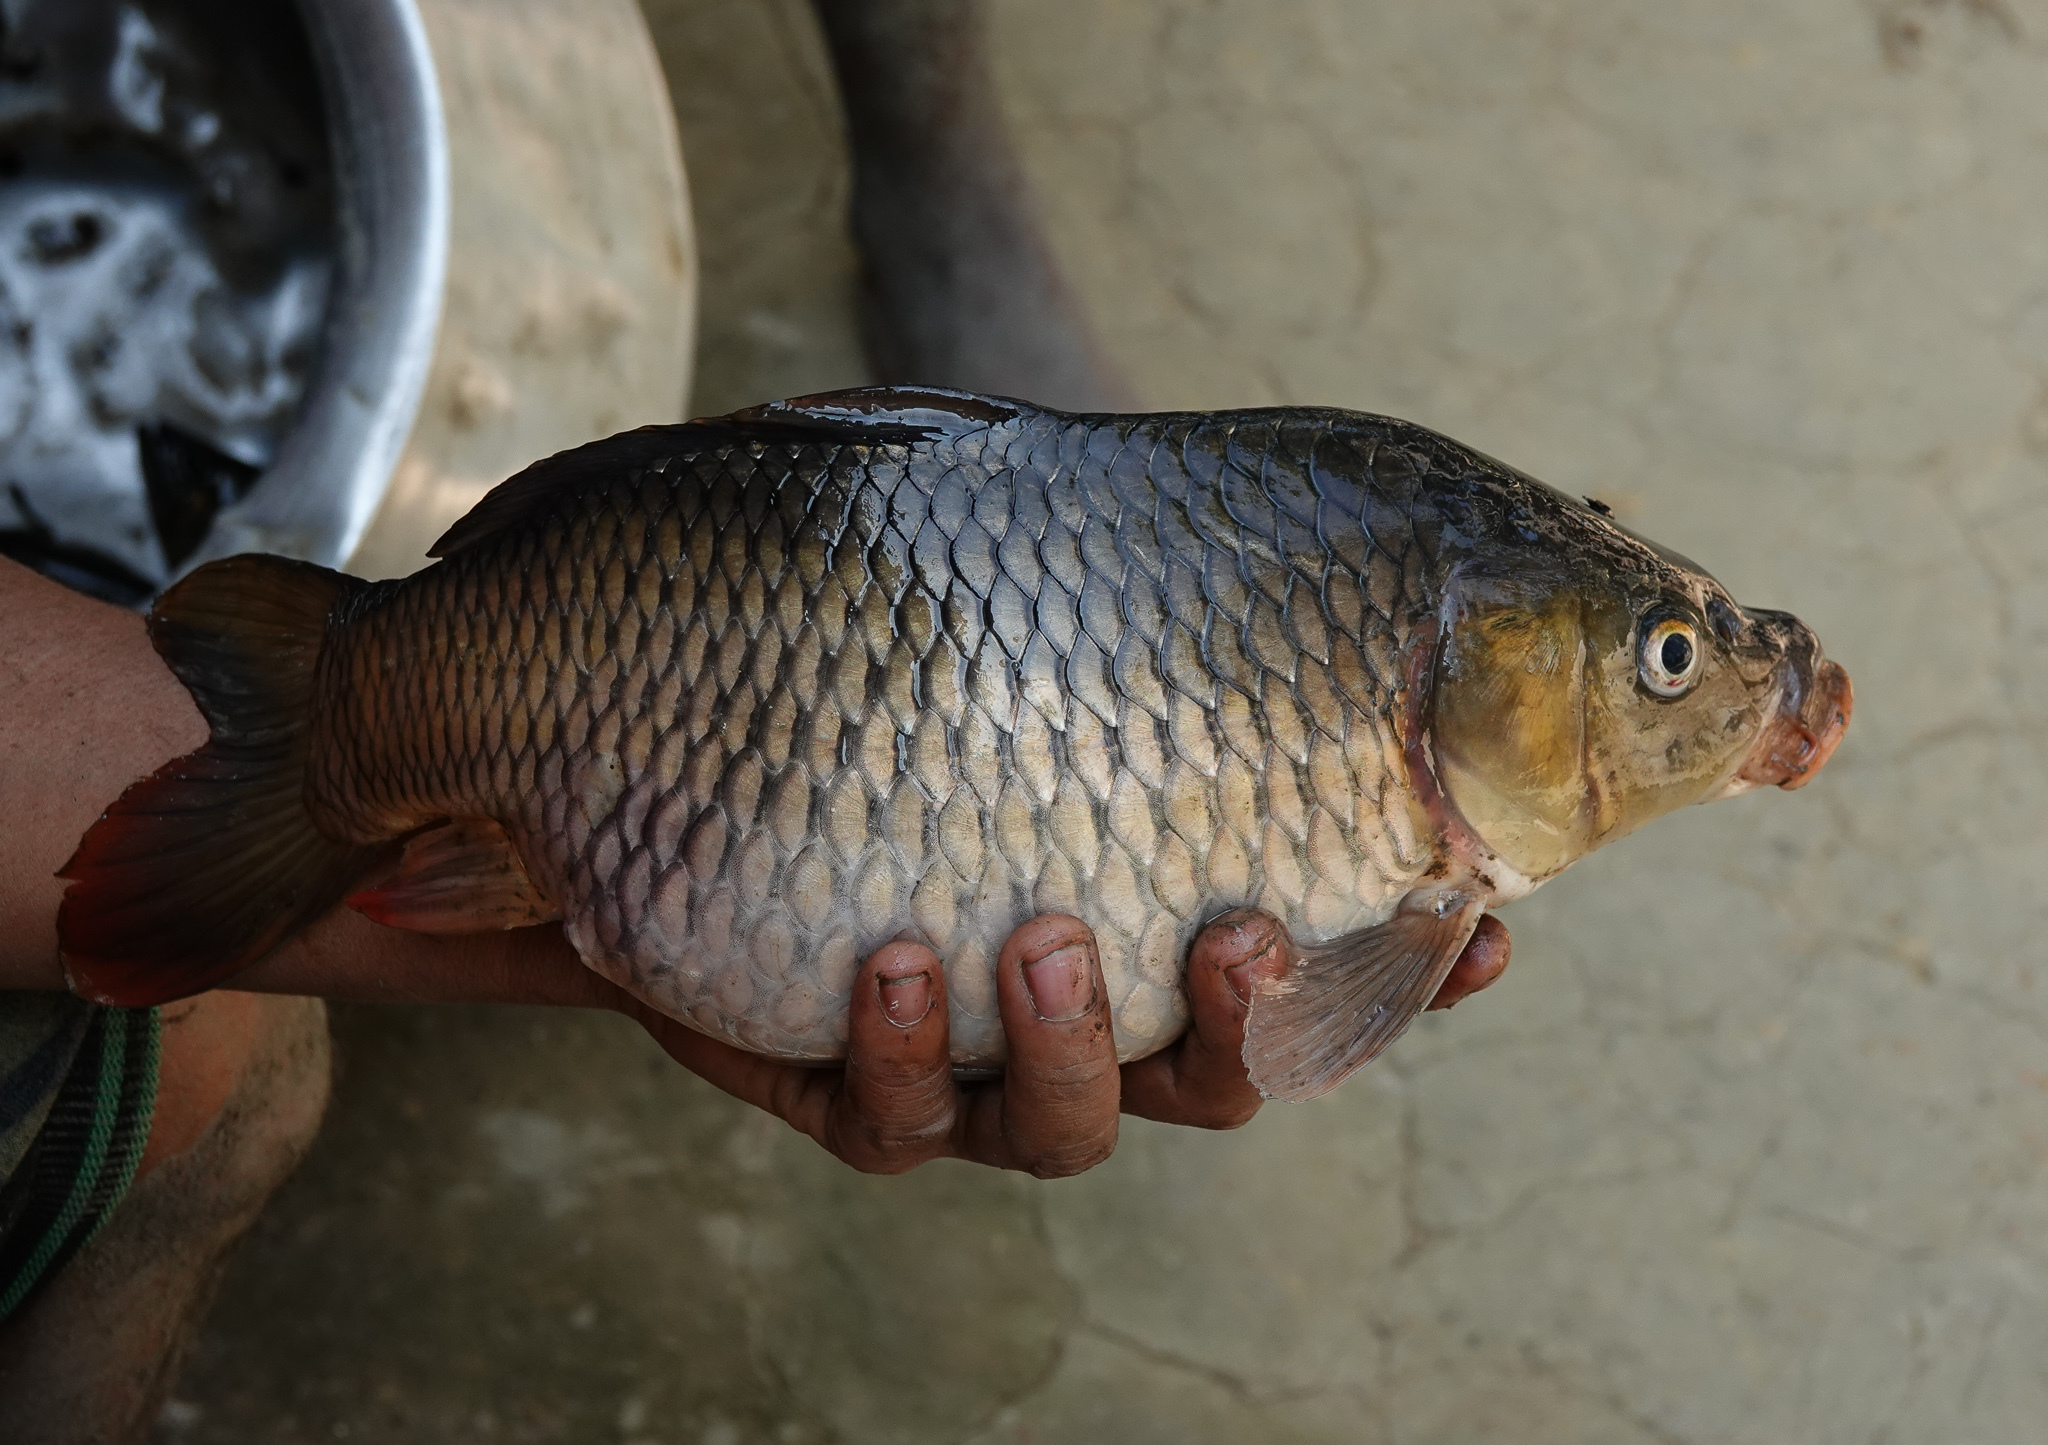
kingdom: Animalia
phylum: Chordata
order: Cypriniformes
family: Cyprinidae
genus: Cyprinus
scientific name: Cyprinus carpio
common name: Common carp
